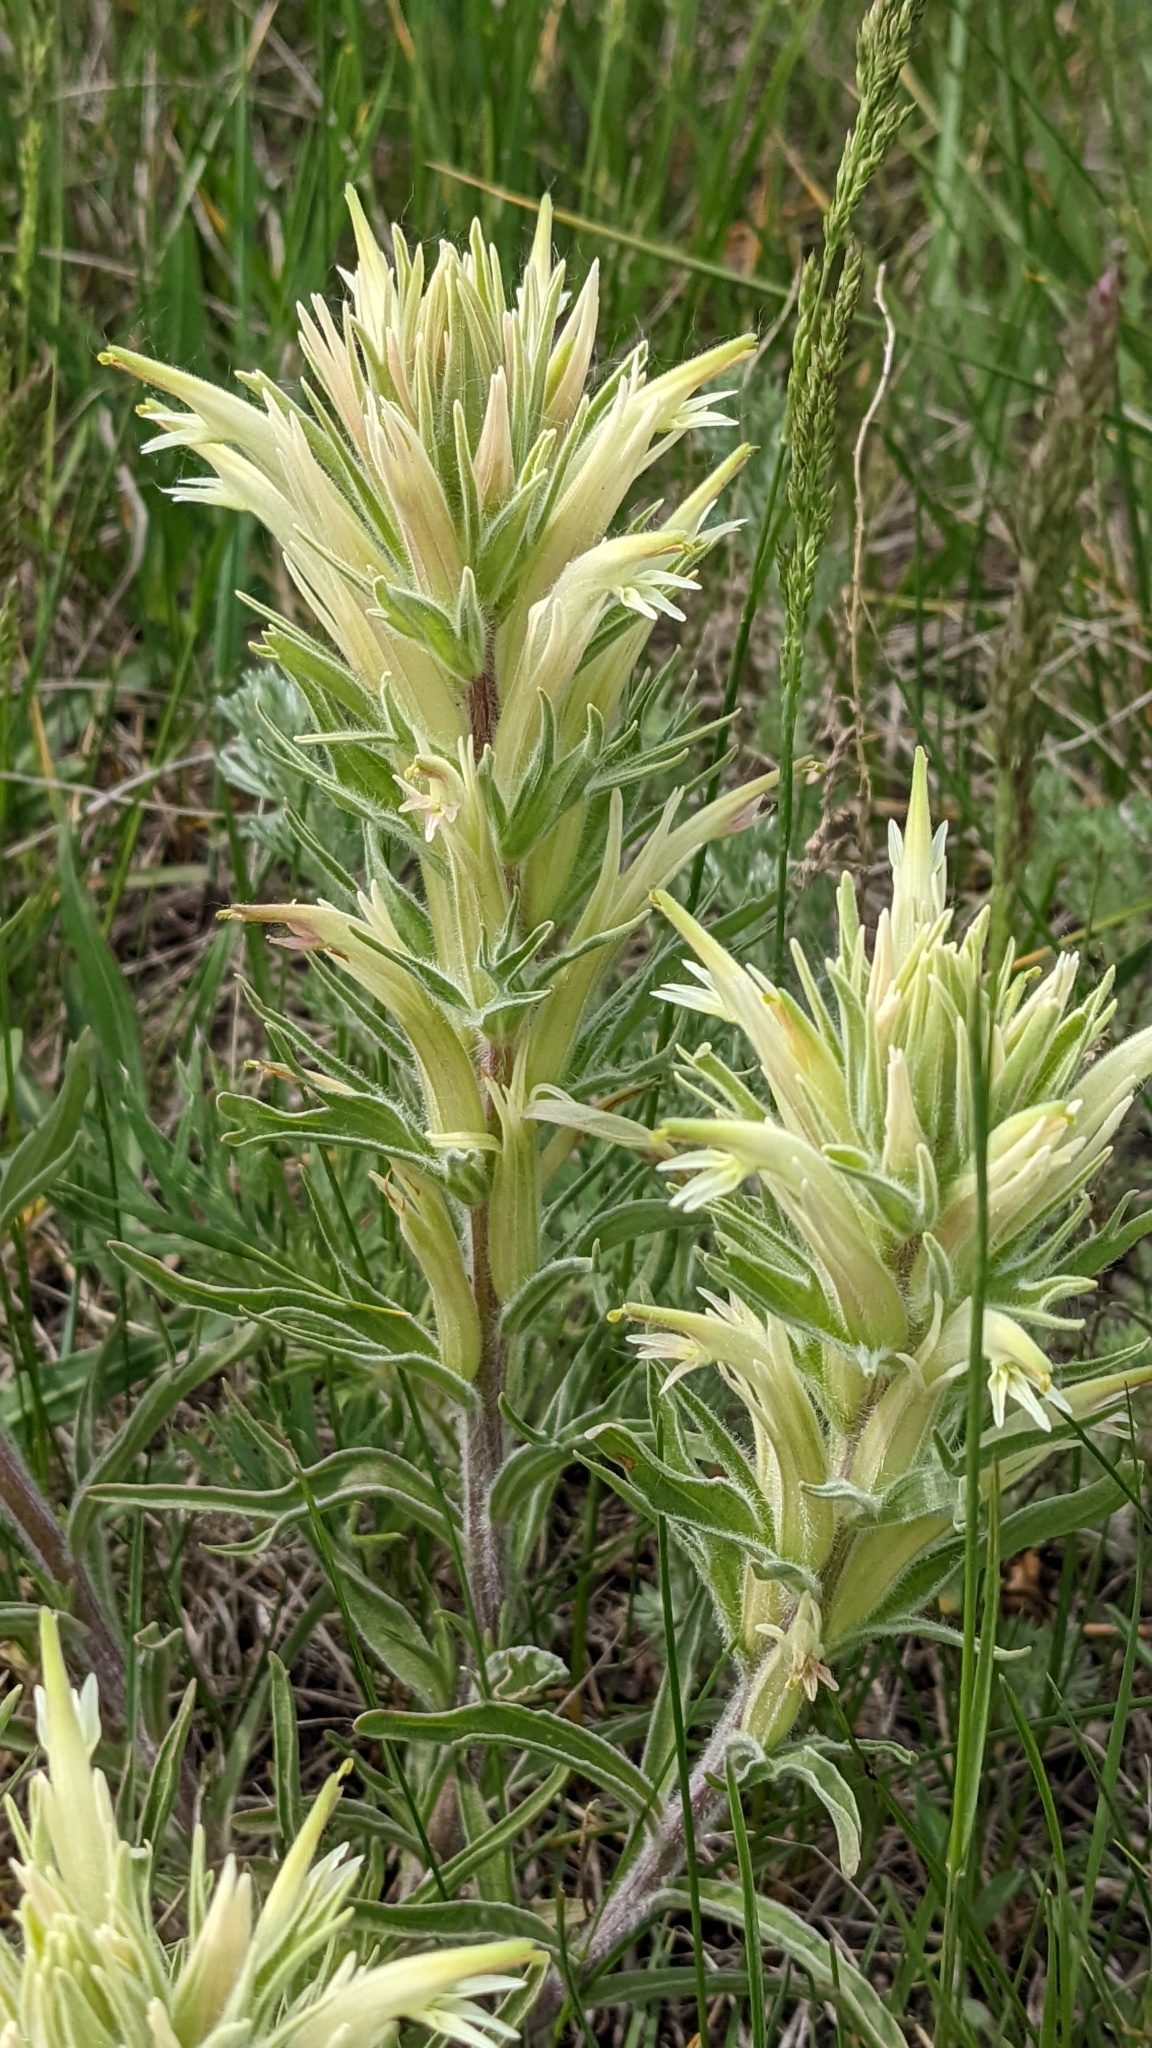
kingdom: Plantae
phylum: Tracheophyta
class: Magnoliopsida
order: Lamiales
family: Orobanchaceae
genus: Castilleja
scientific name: Castilleja sessiliflora
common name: Downy paintbrush
